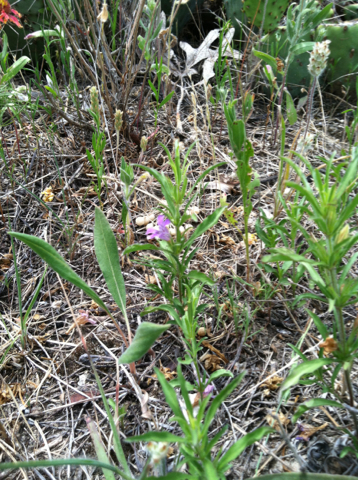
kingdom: Plantae
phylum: Tracheophyta
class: Magnoliopsida
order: Lamiales
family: Acanthaceae
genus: Dyschoriste
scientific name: Dyschoriste linearis
